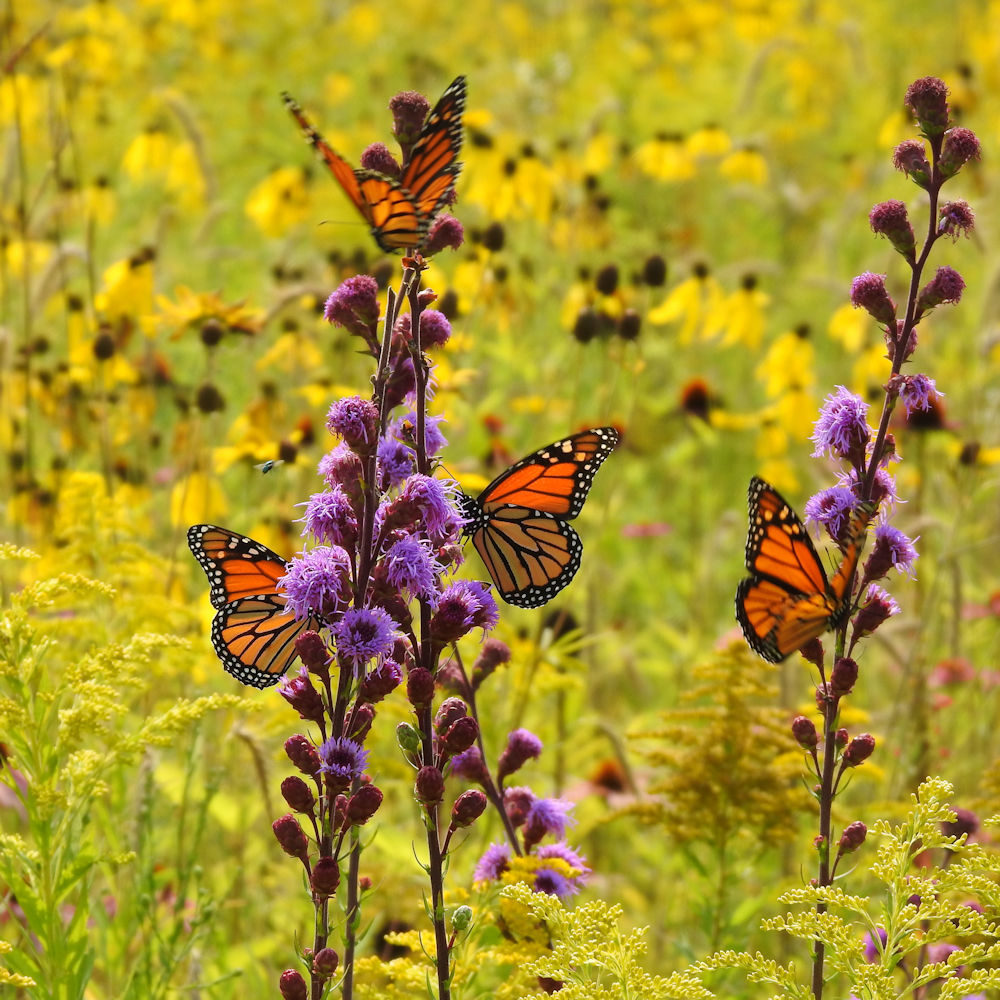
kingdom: Animalia
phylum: Arthropoda
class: Insecta
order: Lepidoptera
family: Nymphalidae
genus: Danaus
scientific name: Danaus plexippus
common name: Monarch
